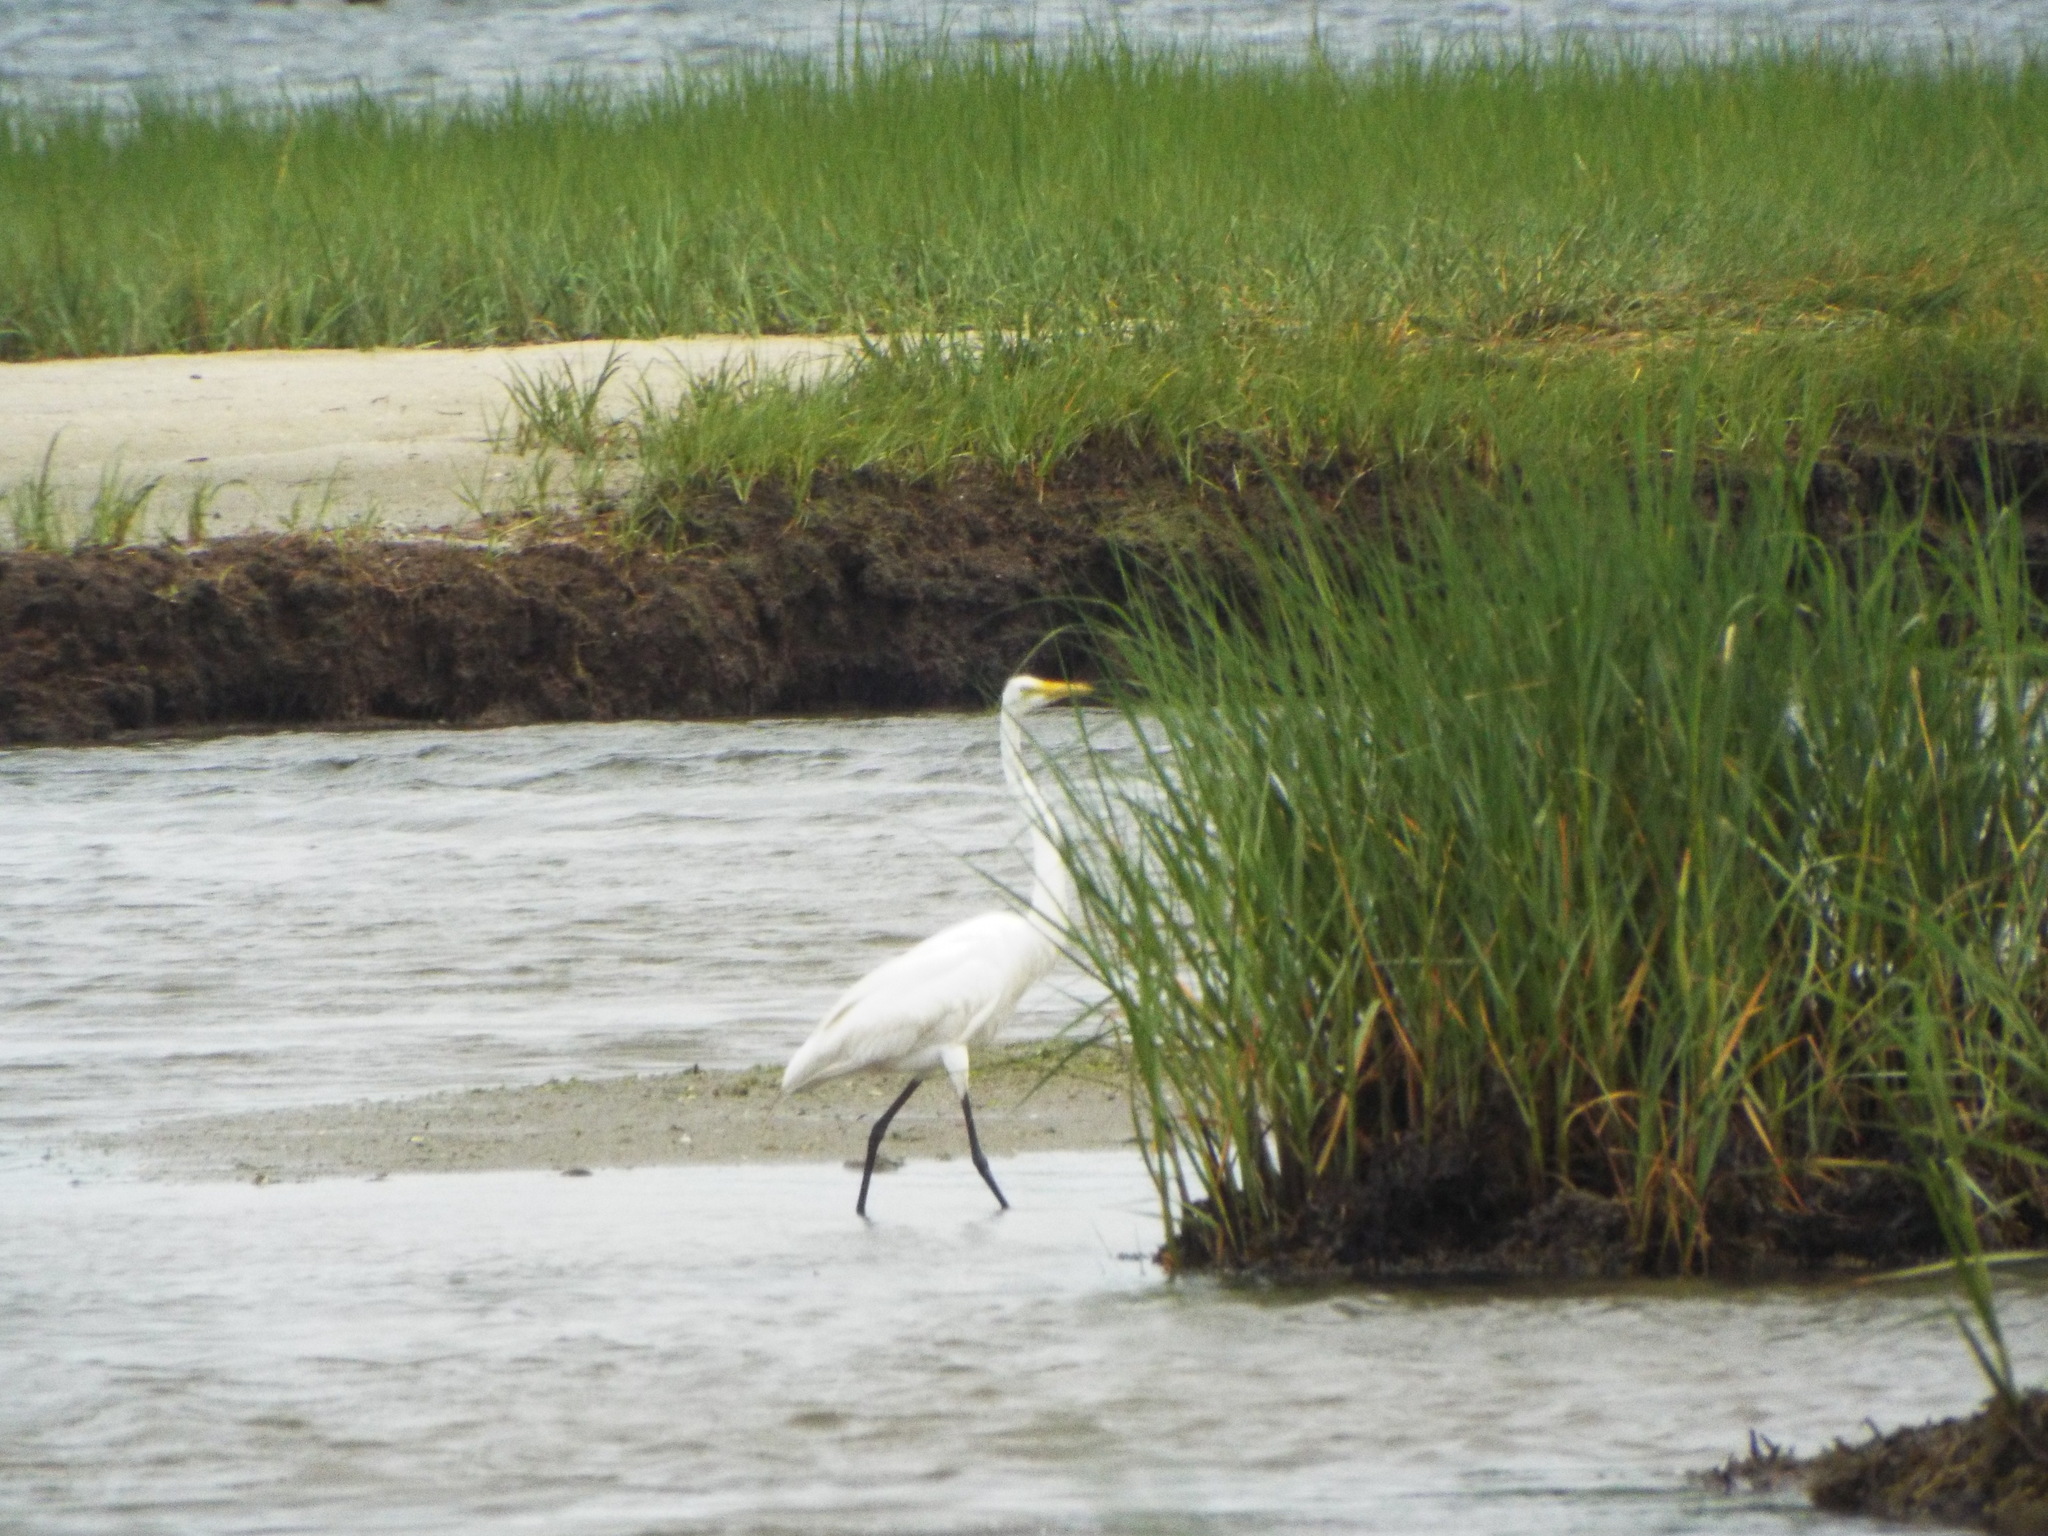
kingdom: Animalia
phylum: Chordata
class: Aves
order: Pelecaniformes
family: Ardeidae
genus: Ardea
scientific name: Ardea alba
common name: Great egret
